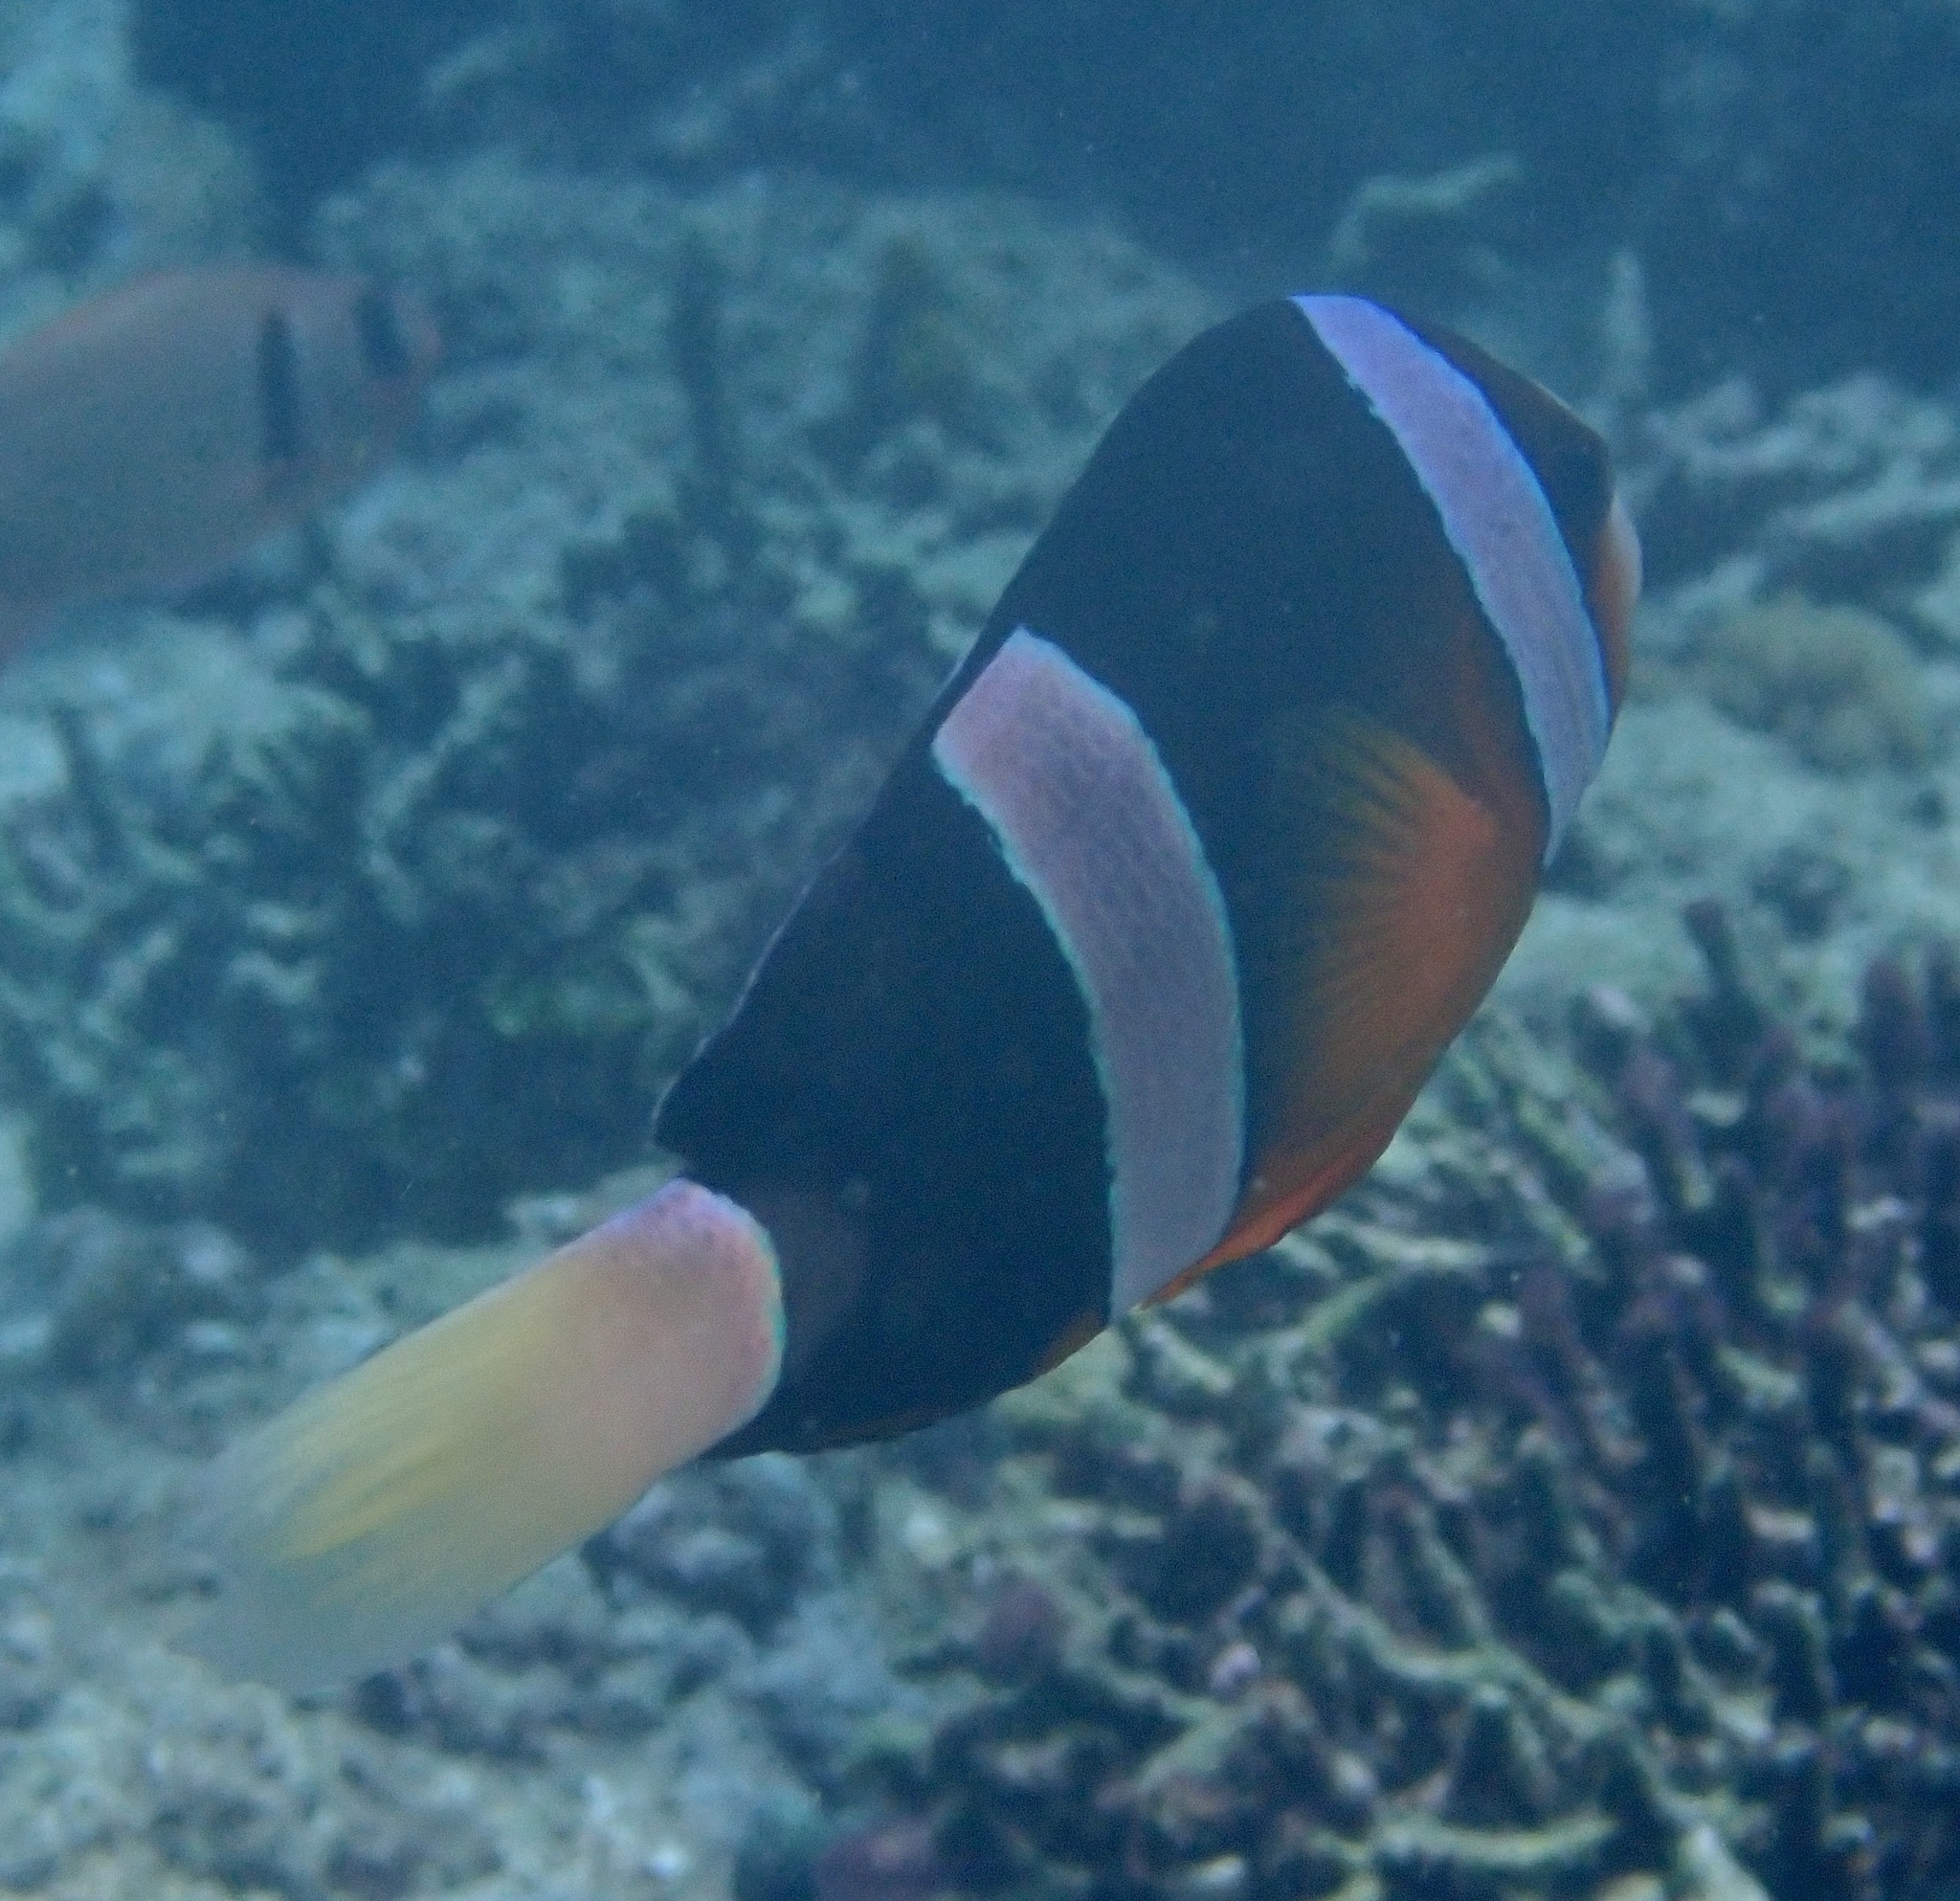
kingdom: Animalia
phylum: Chordata
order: Perciformes
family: Pomacentridae
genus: Amphiprion
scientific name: Amphiprion clarkii
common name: Clark's anemonefish
